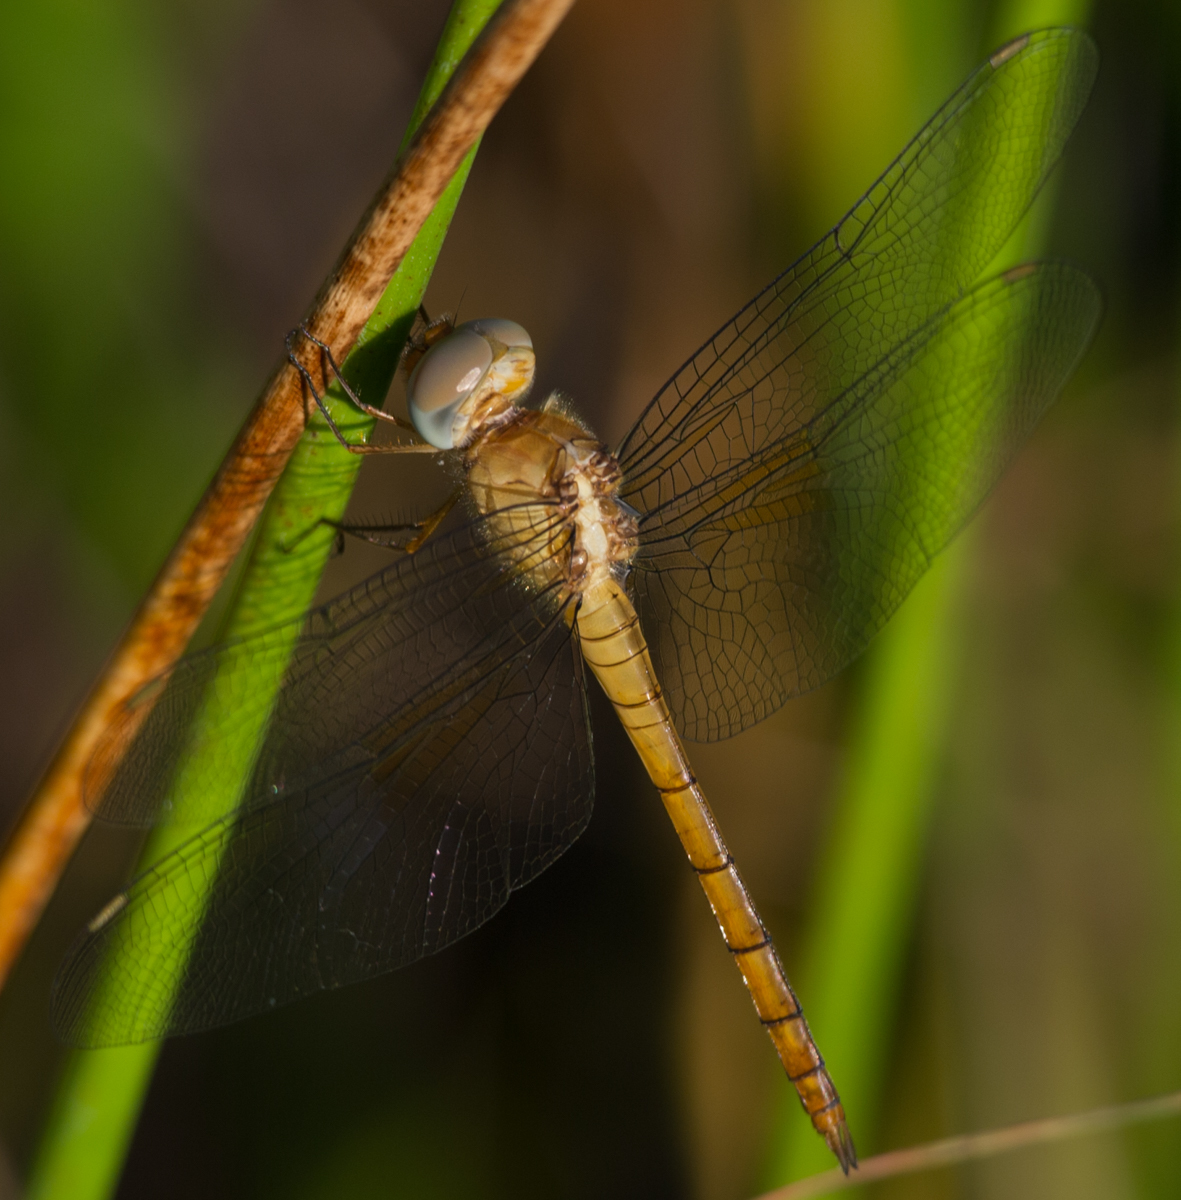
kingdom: Animalia
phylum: Arthropoda
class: Insecta
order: Odonata
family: Libellulidae
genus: Tholymis
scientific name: Tholymis tillarga
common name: Coral-tailed cloud wing
